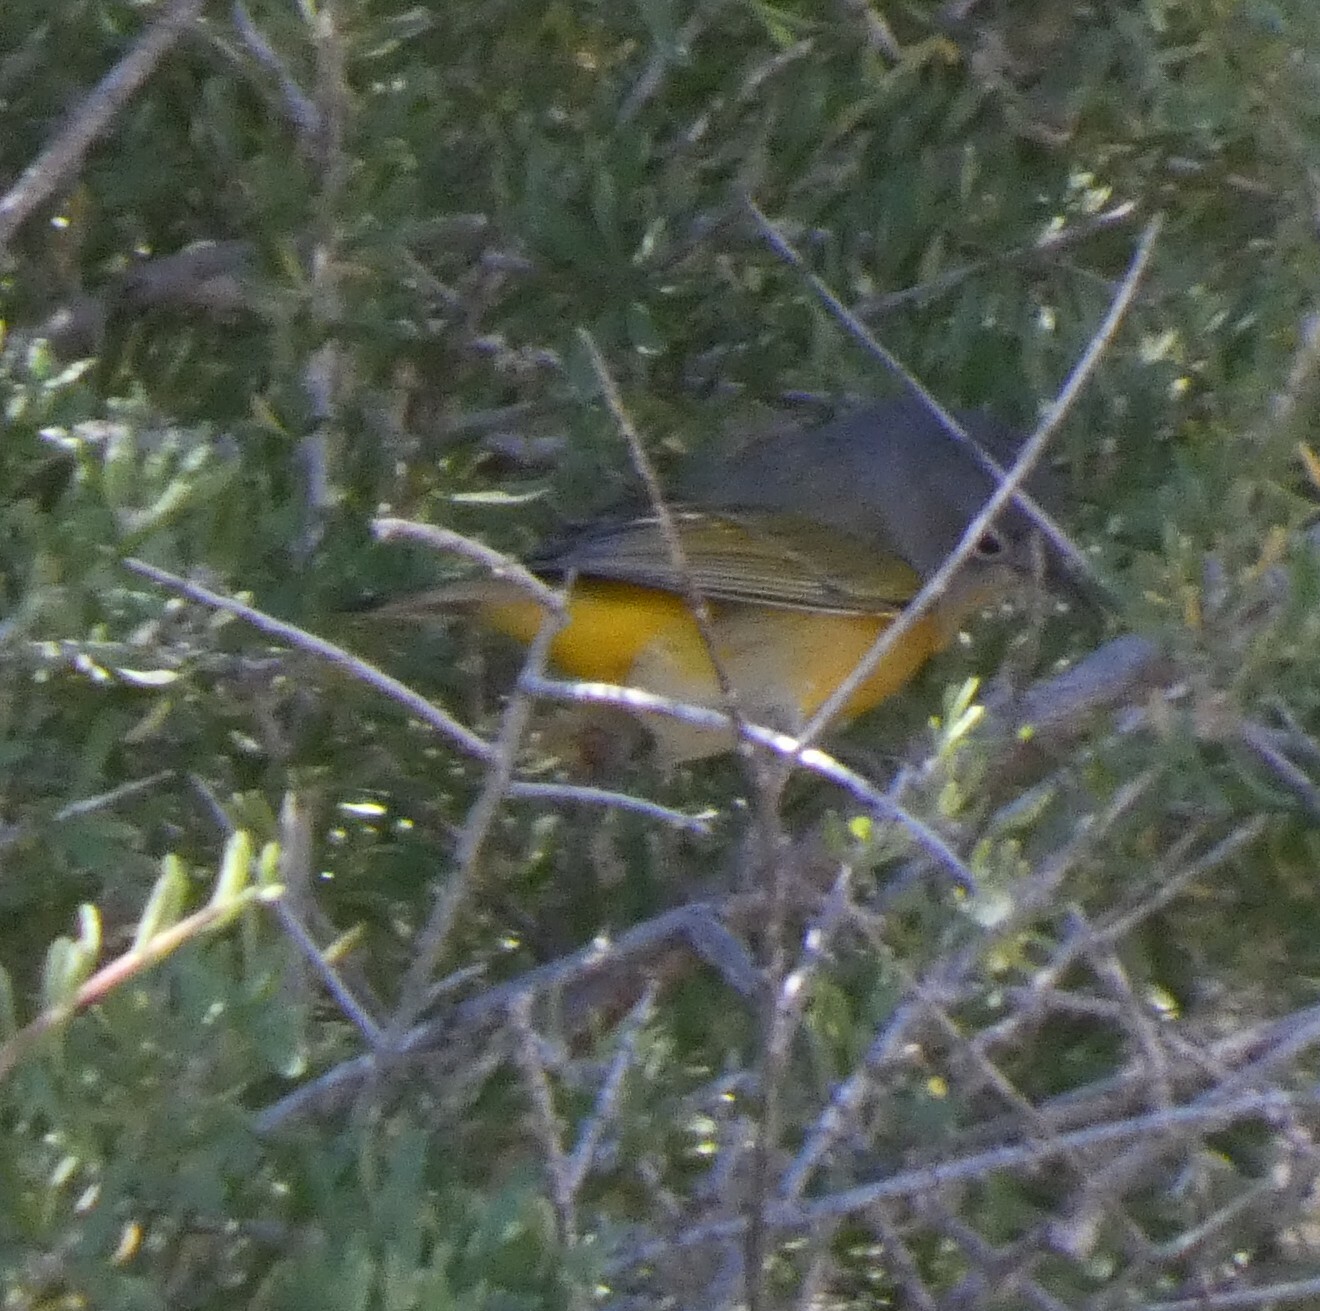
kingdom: Animalia
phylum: Chordata
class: Aves
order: Passeriformes
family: Parulidae
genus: Leiothlypis
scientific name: Leiothlypis ruficapilla
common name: Nashville warbler
